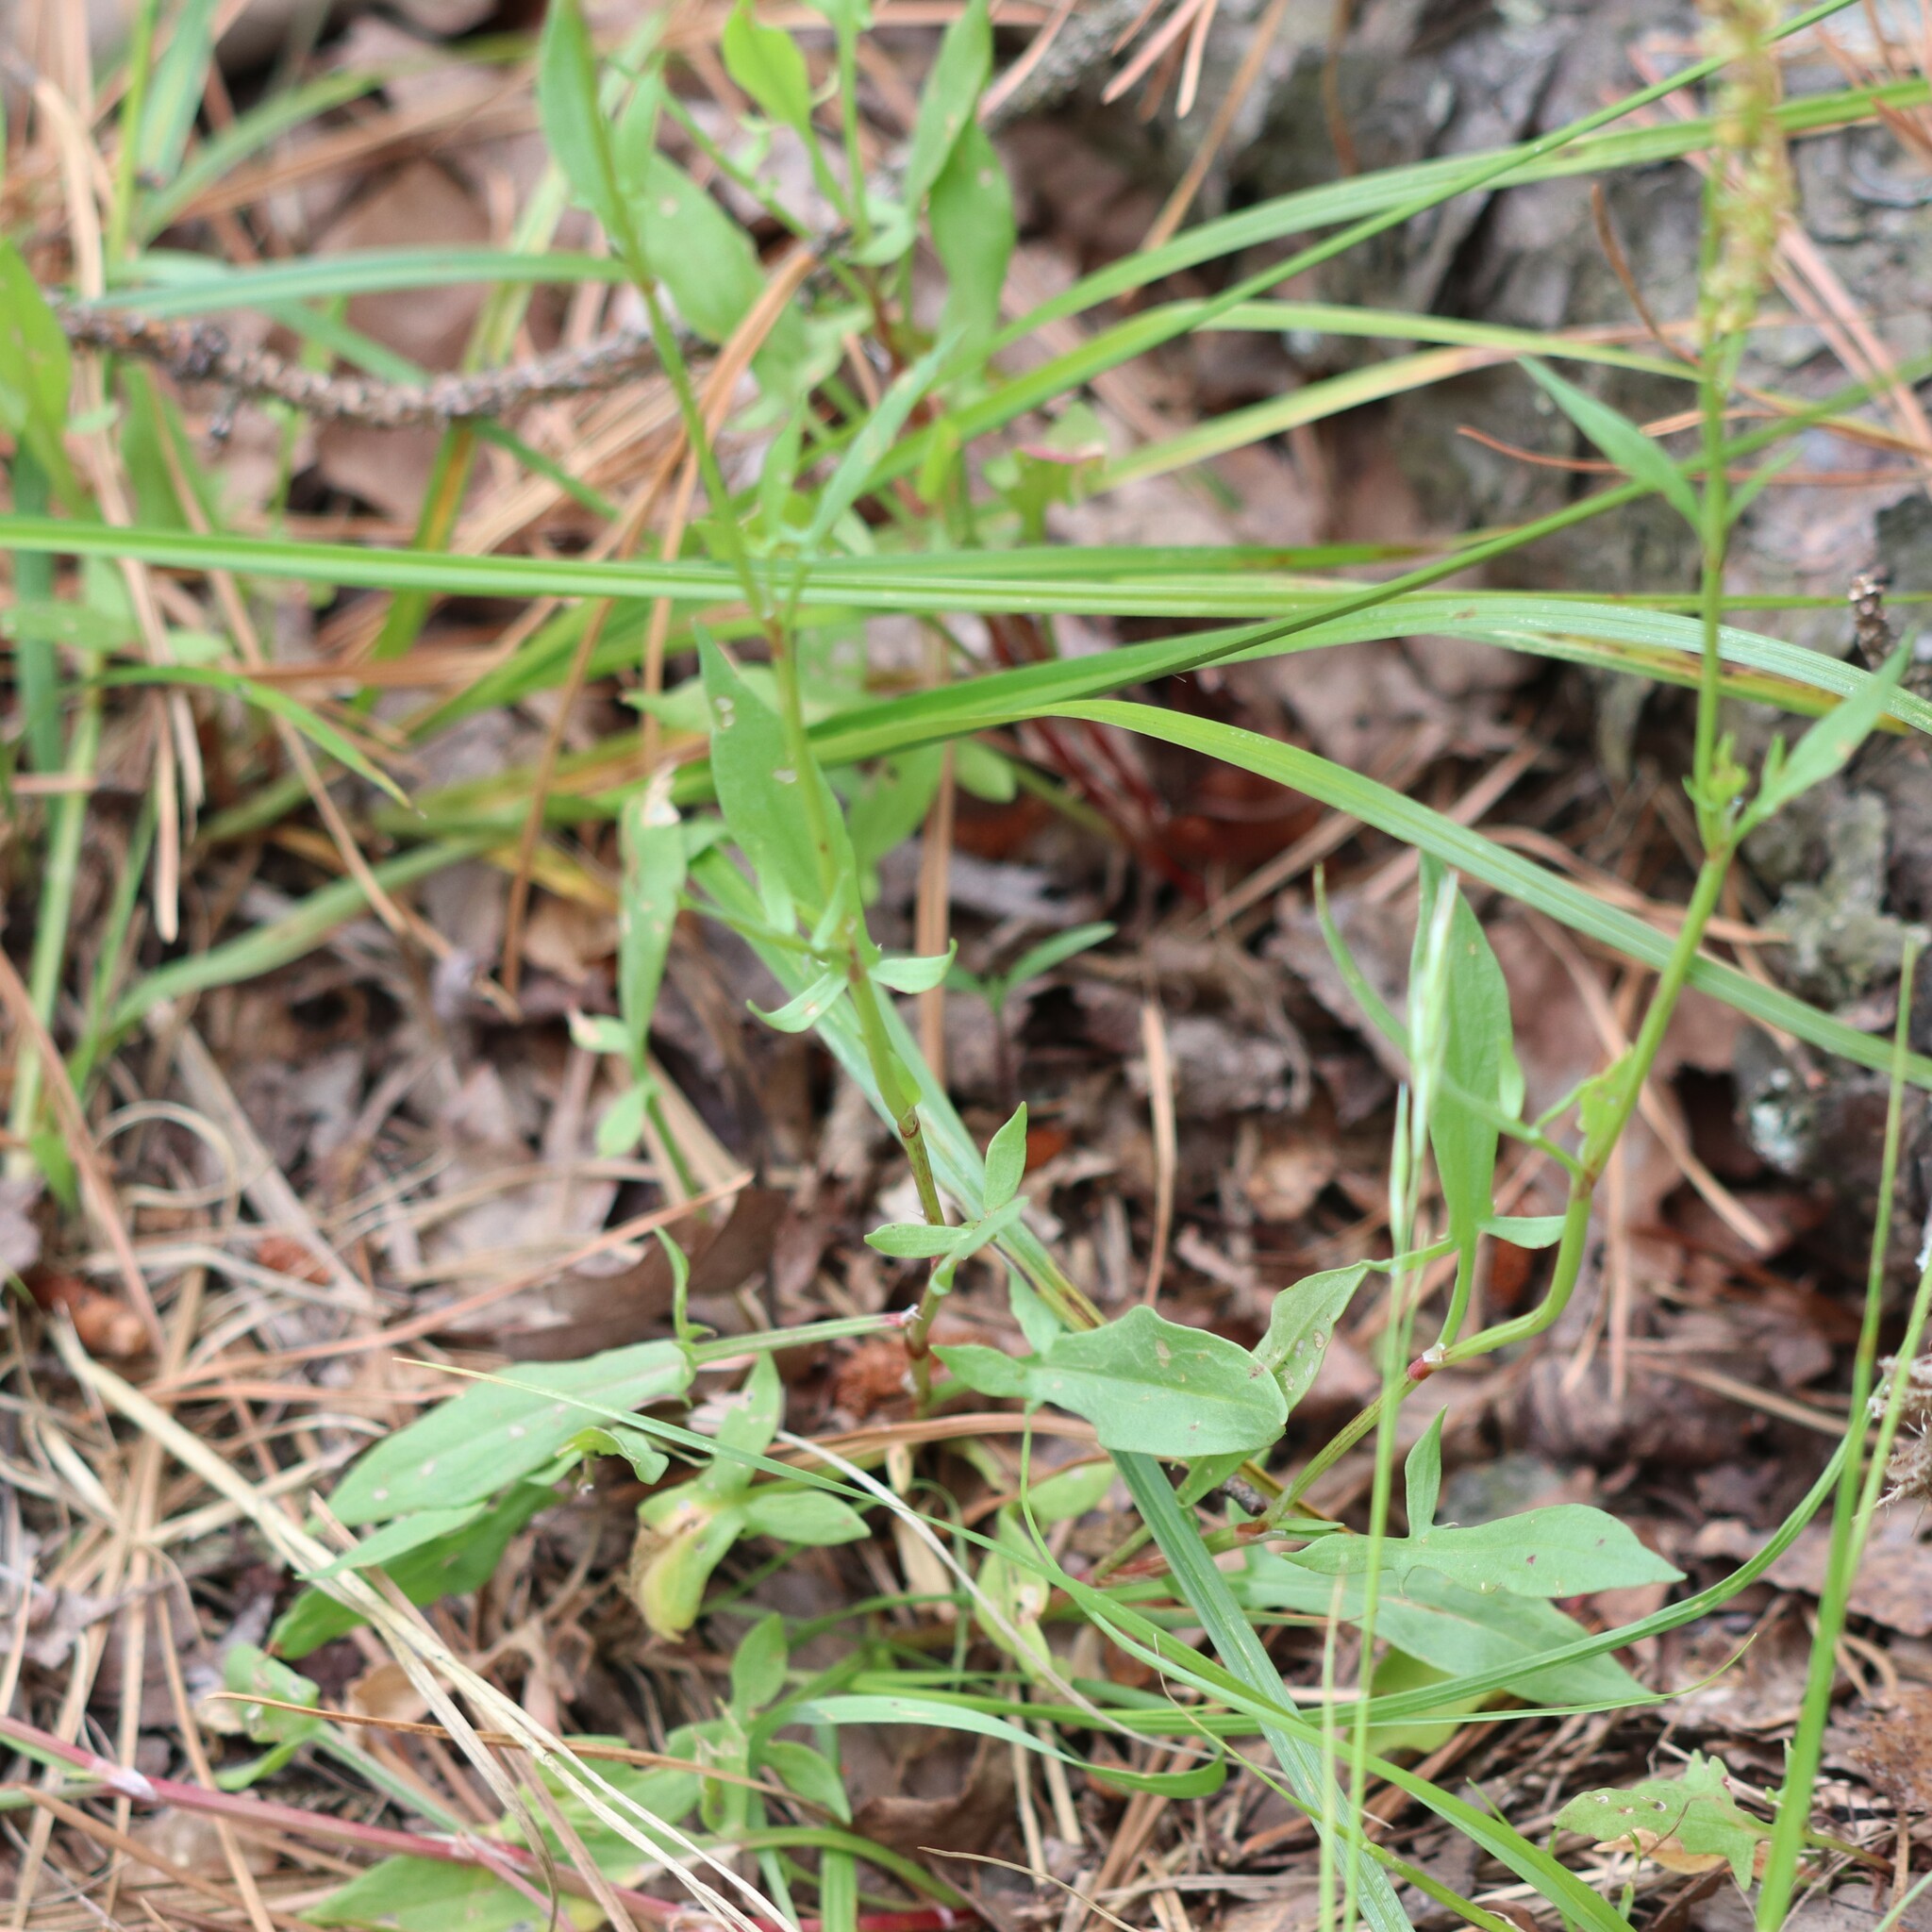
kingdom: Plantae
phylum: Tracheophyta
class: Magnoliopsida
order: Caryophyllales
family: Polygonaceae
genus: Rumex
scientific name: Rumex acetosella
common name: Common sheep sorrel
